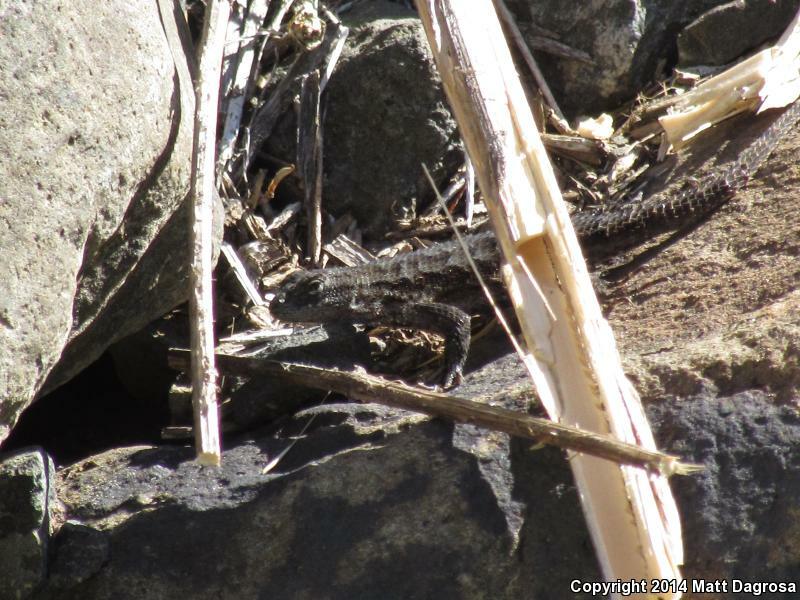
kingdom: Animalia
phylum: Chordata
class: Squamata
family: Phrynosomatidae
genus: Sceloporus
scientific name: Sceloporus occidentalis
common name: Western fence lizard
